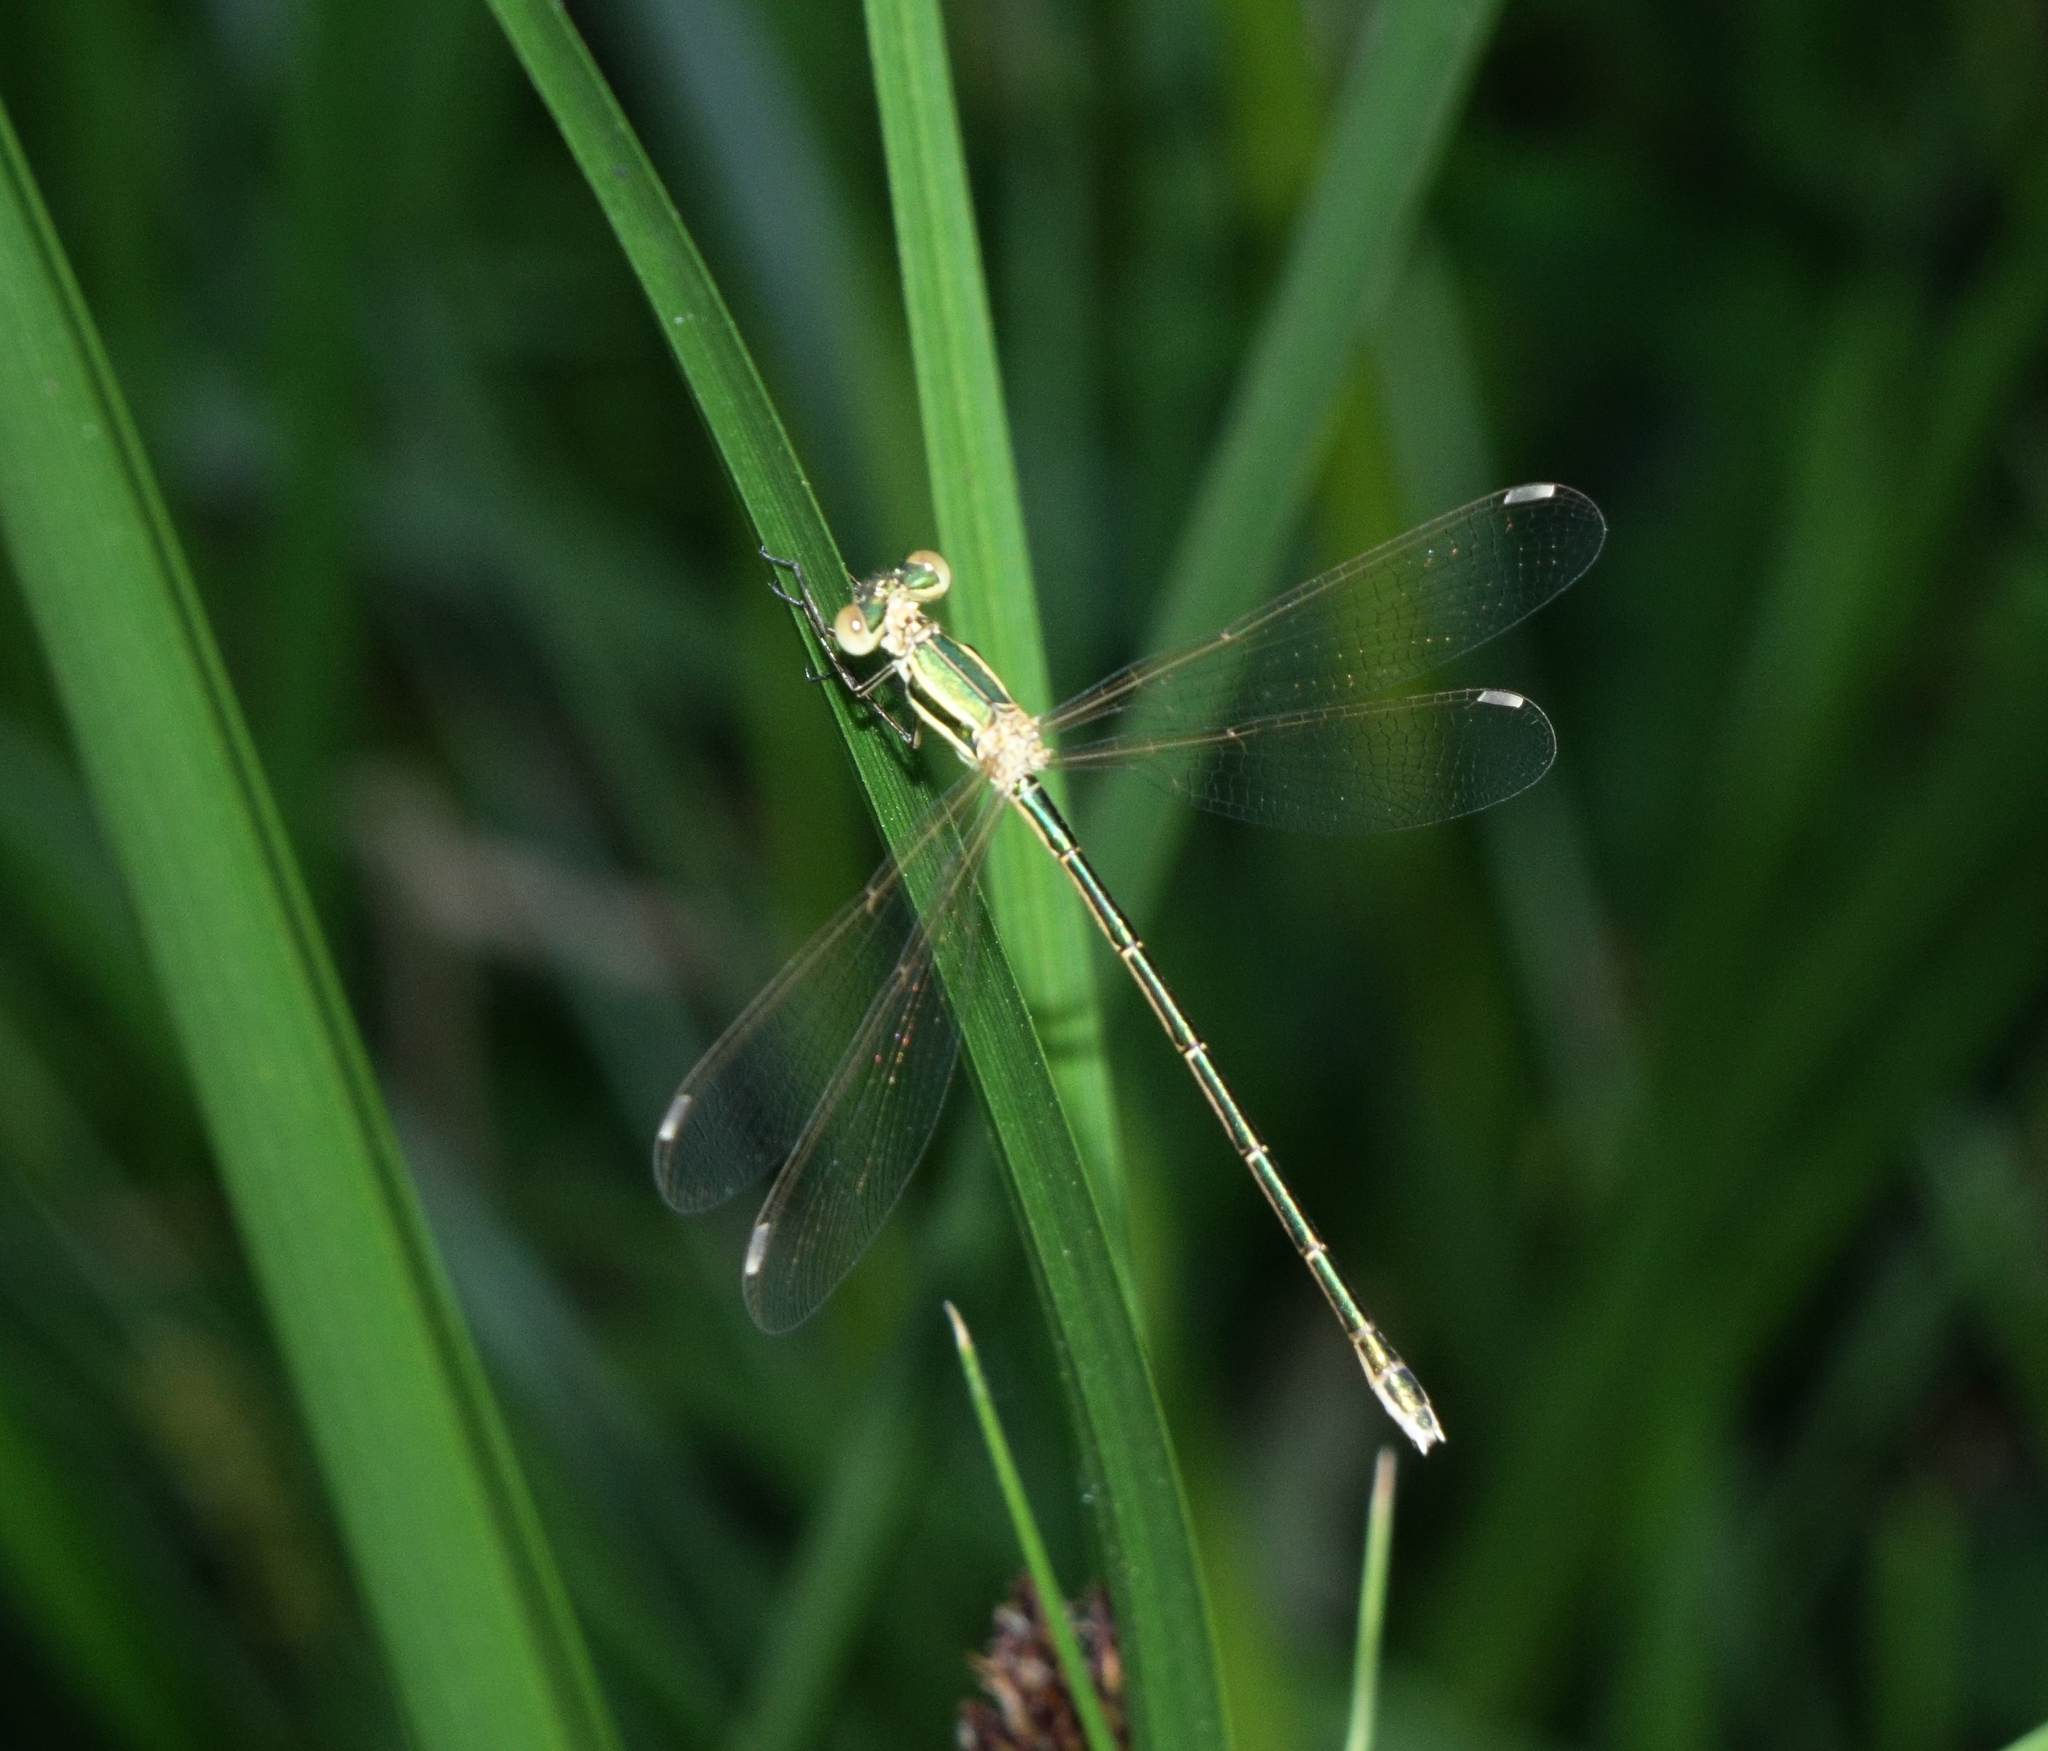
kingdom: Animalia
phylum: Arthropoda
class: Insecta
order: Odonata
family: Lestidae
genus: Lestes
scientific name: Lestes barbarus
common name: Migrant spreadwing
